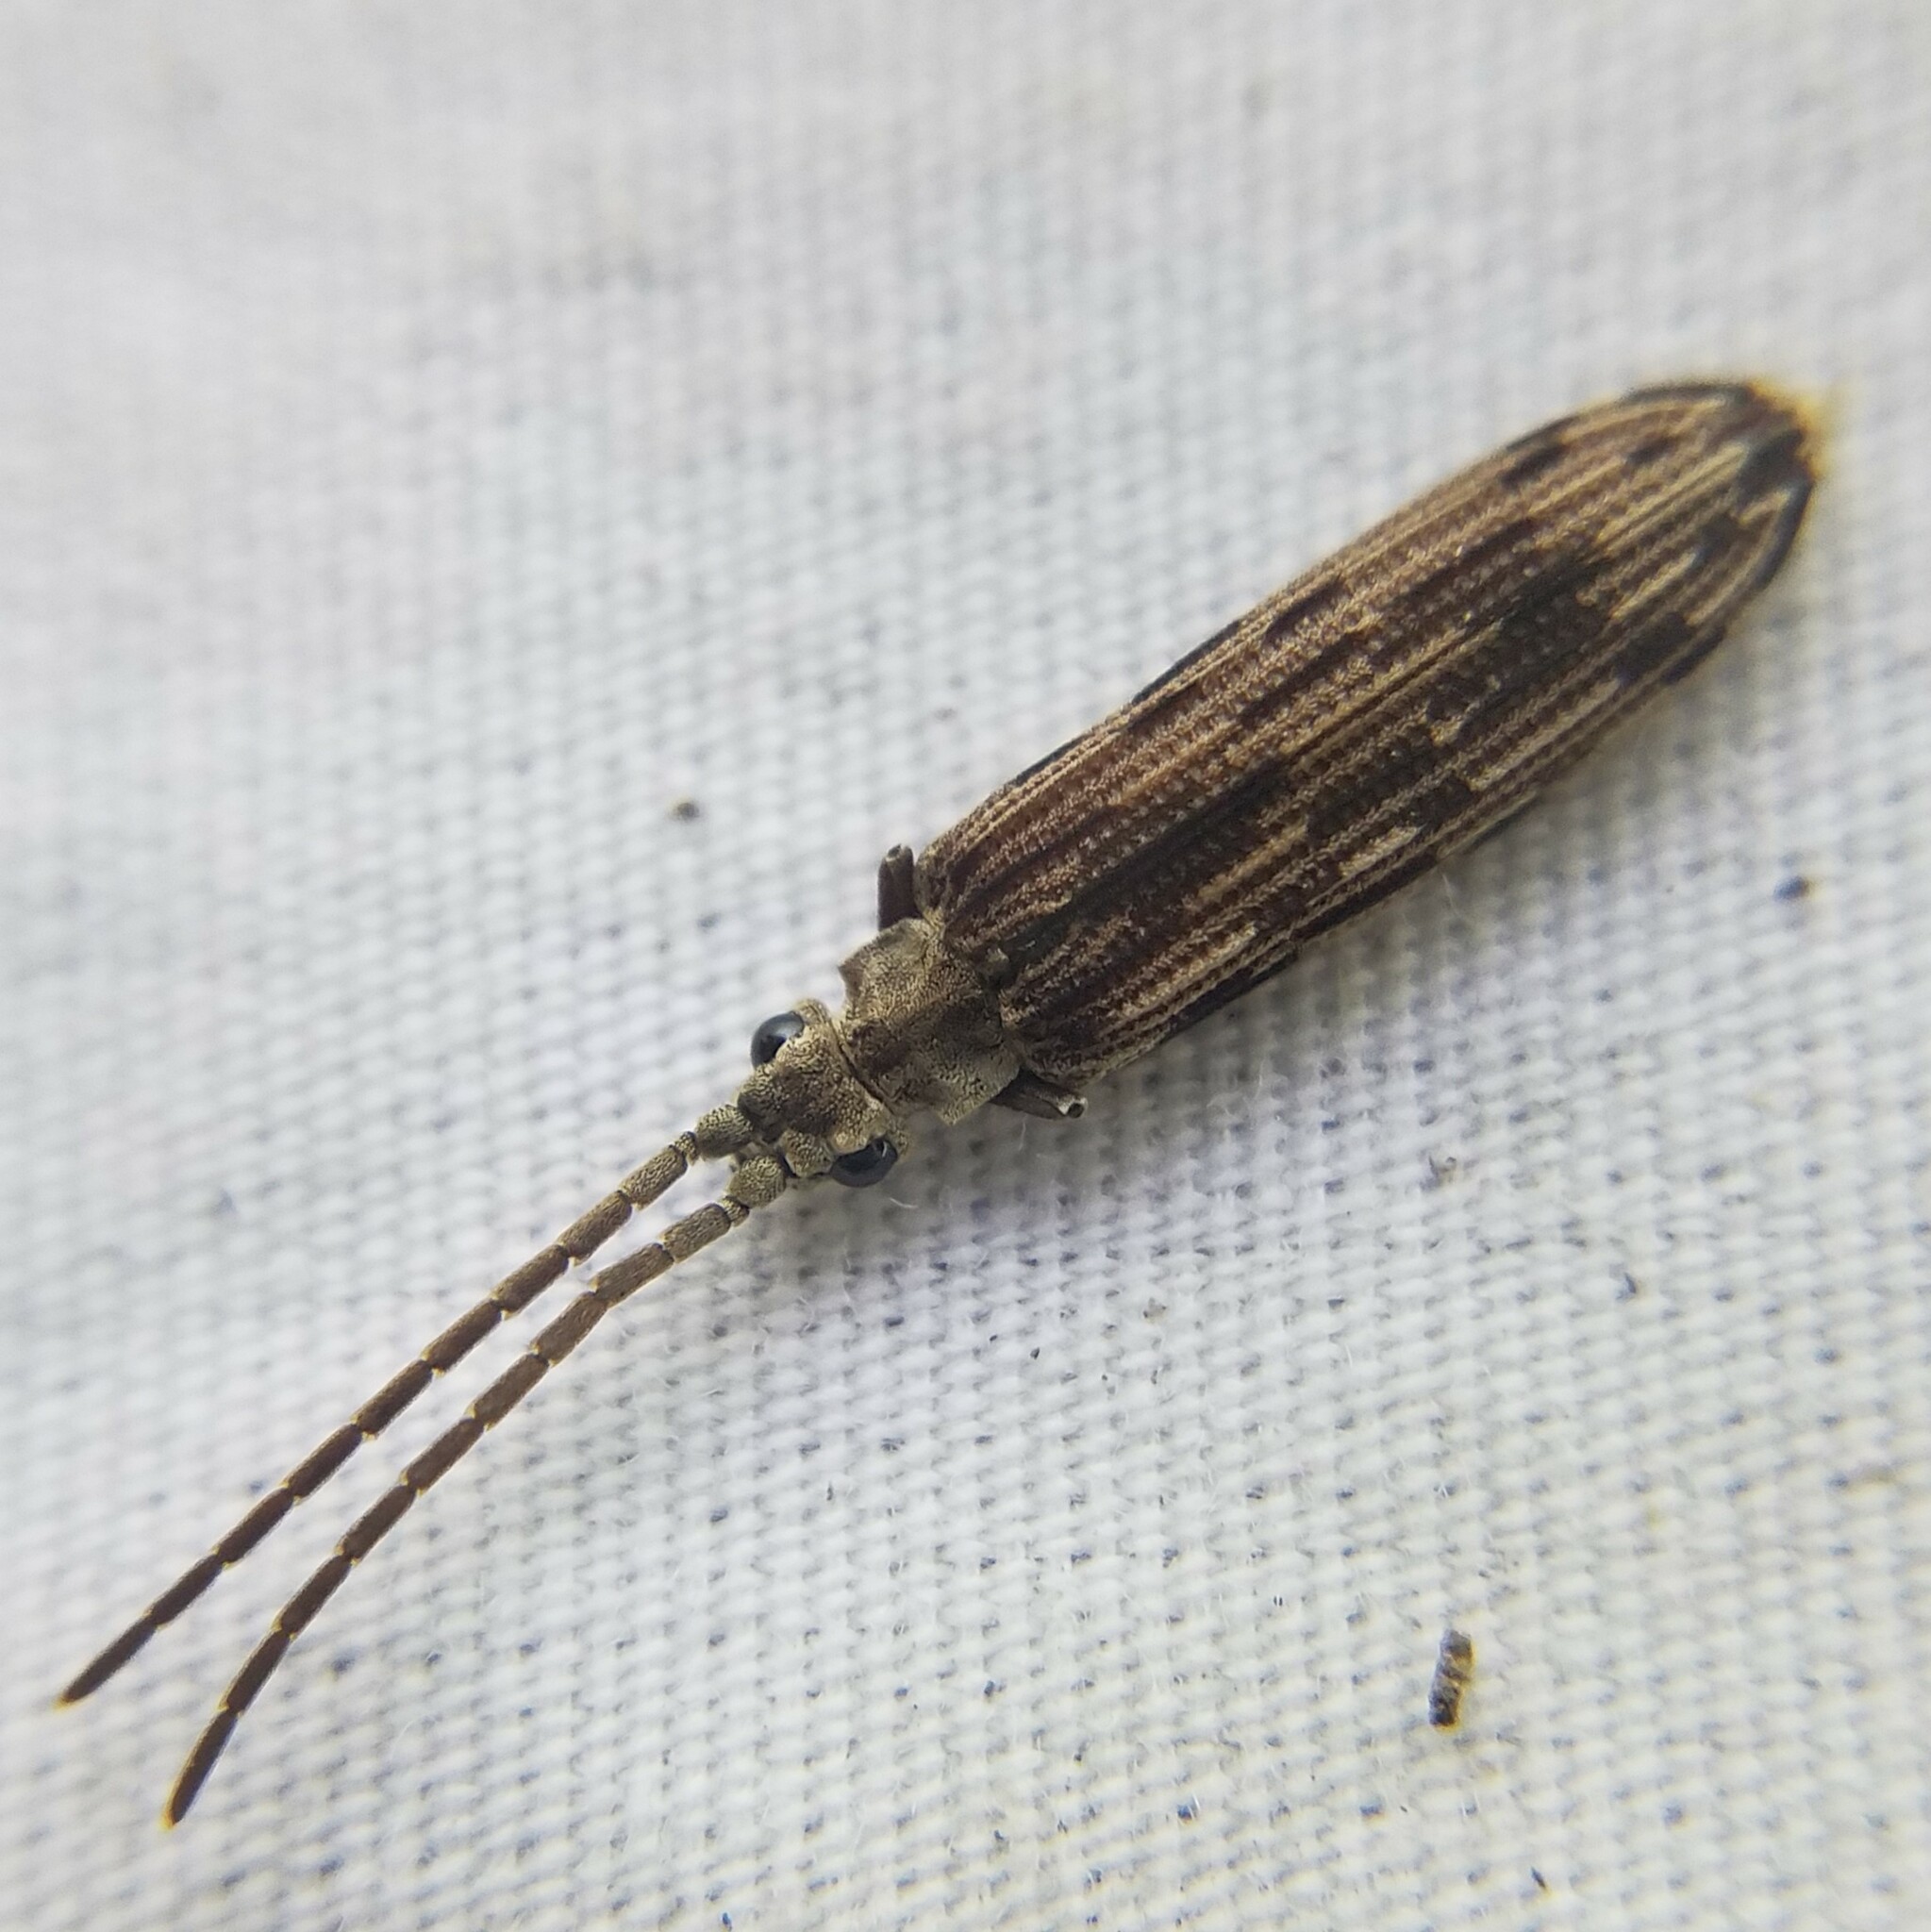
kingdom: Animalia
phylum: Arthropoda
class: Insecta
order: Coleoptera
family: Cupedidae
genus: Tenomerga
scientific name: Tenomerga cinerea
